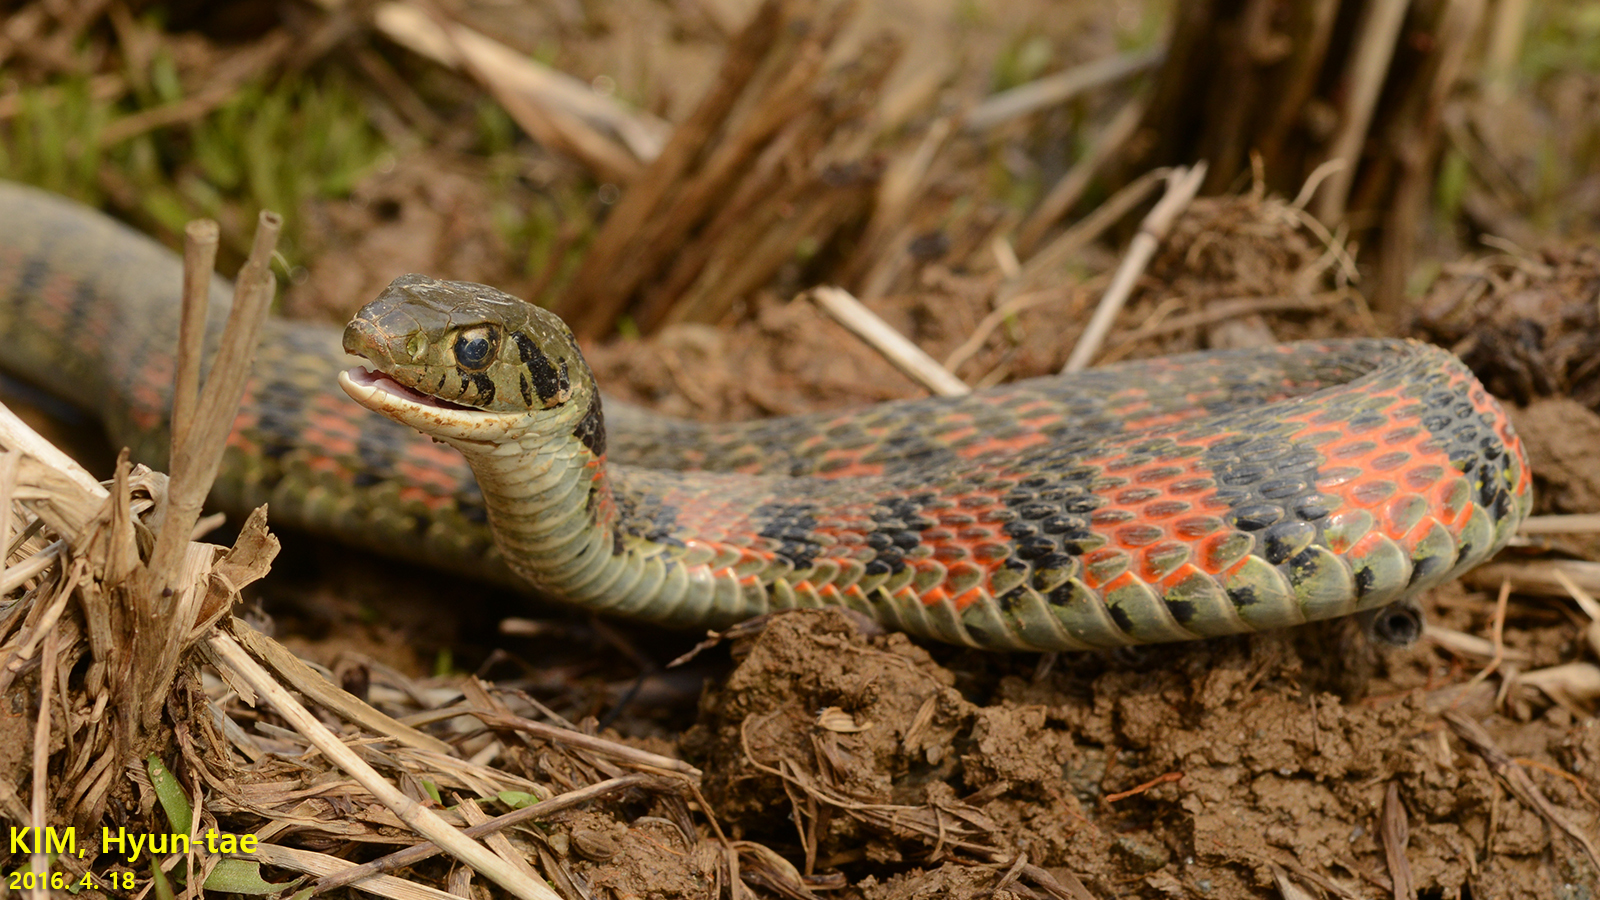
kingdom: Animalia
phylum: Chordata
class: Squamata
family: Colubridae
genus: Rhabdophis
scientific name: Rhabdophis tigrinus
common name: Tiger keelback
